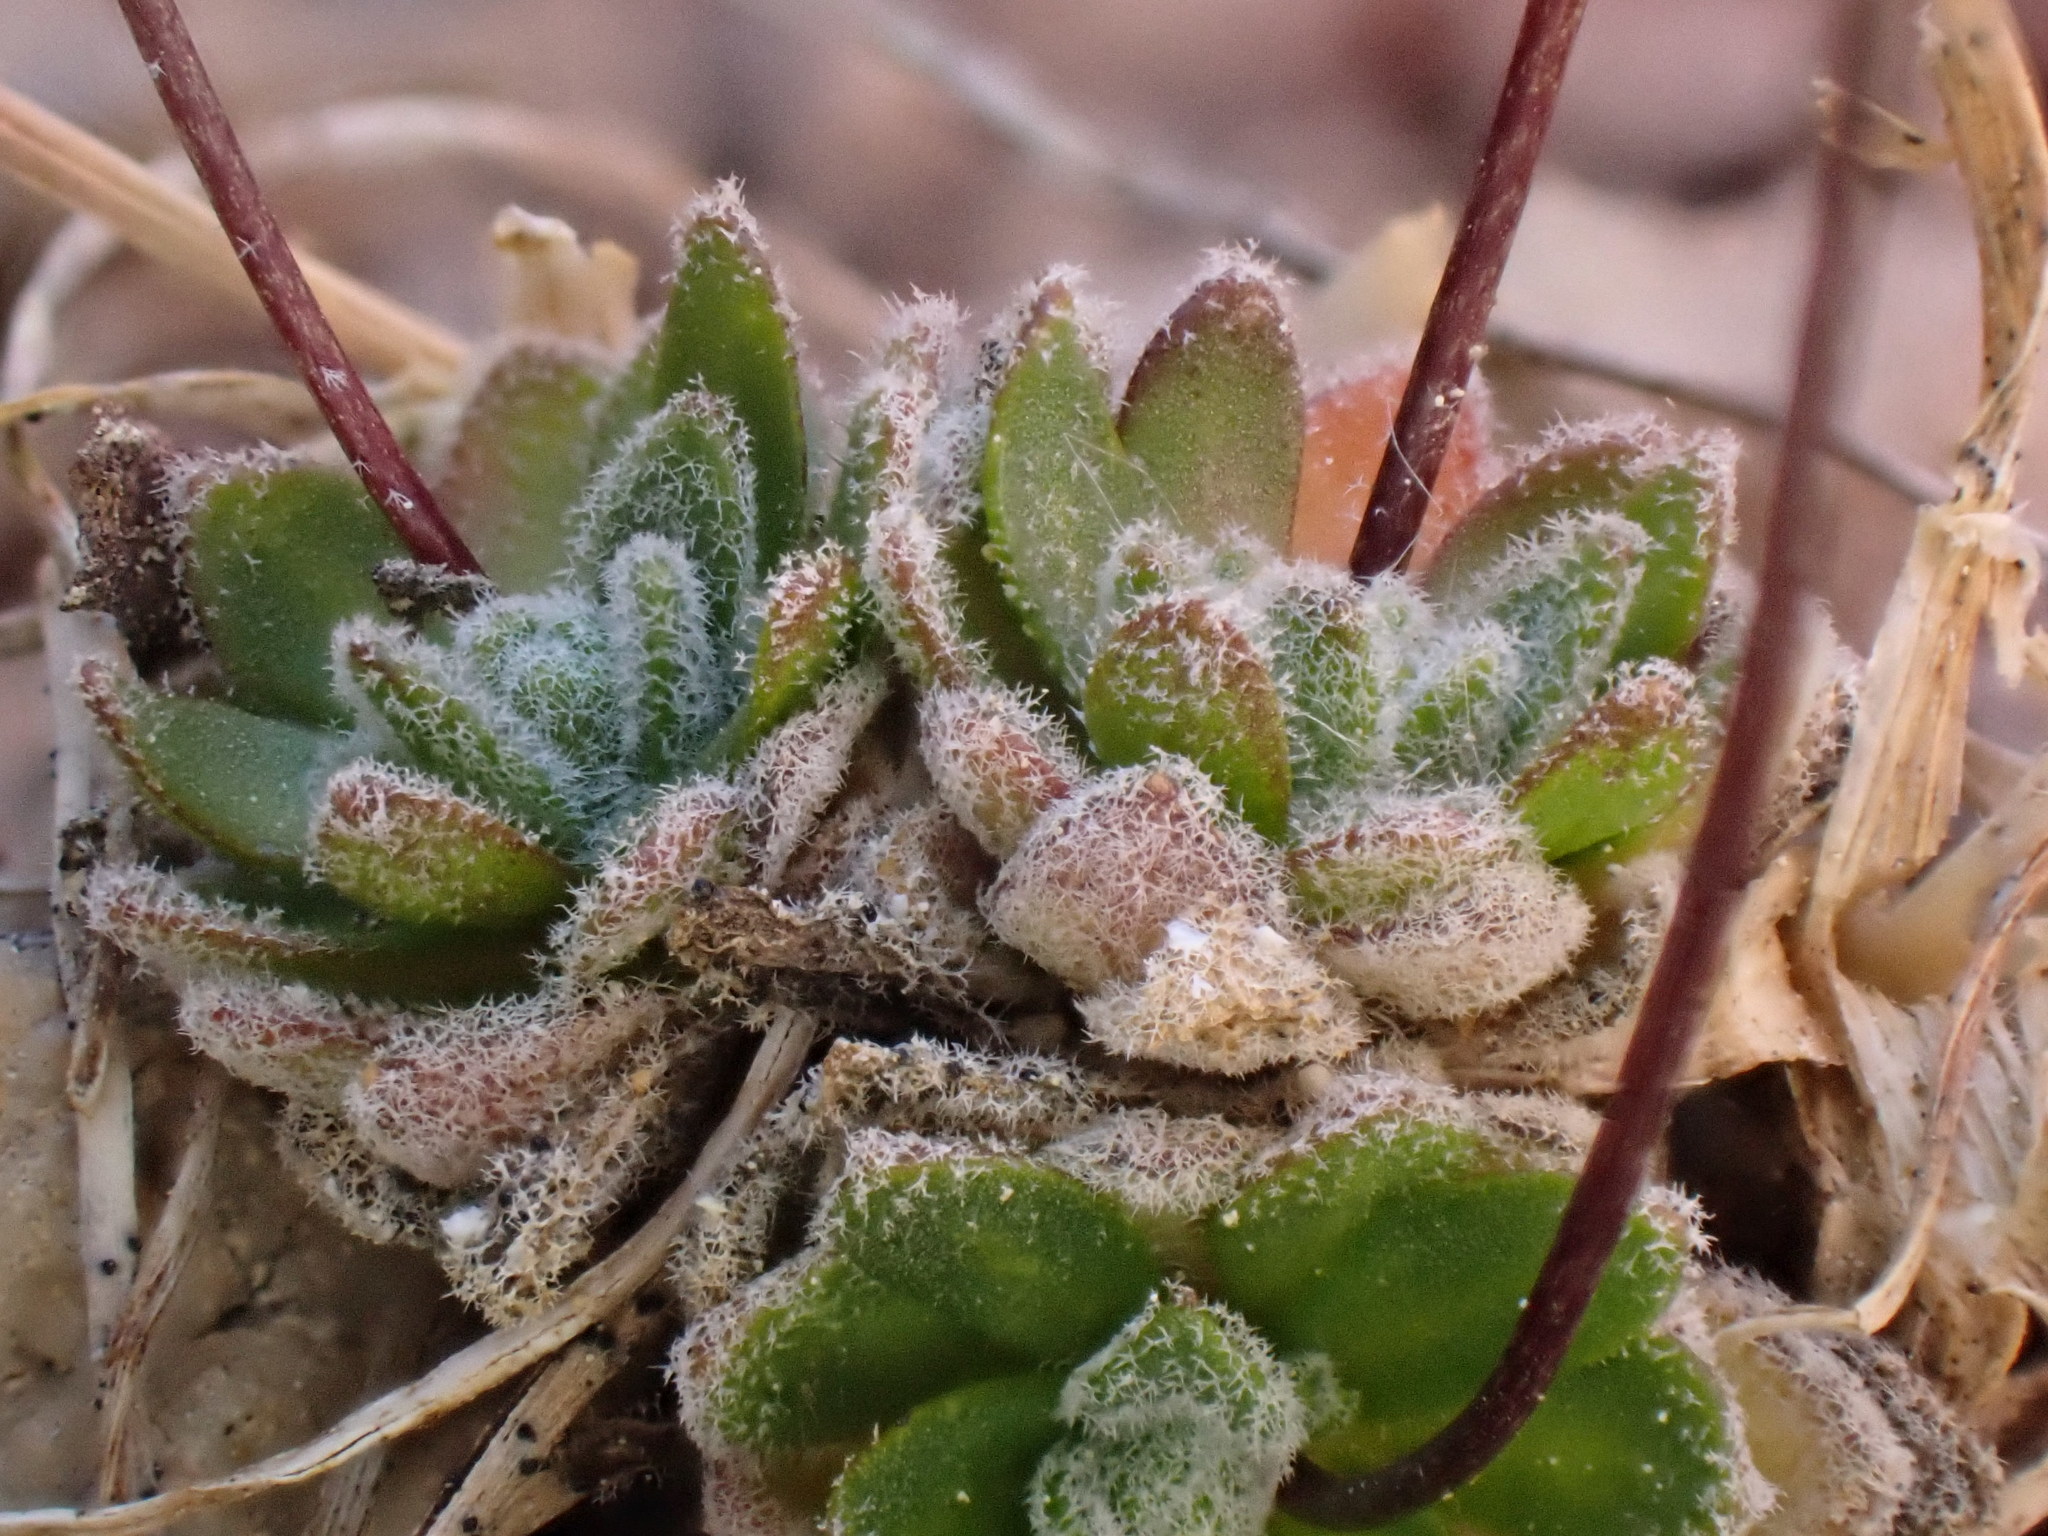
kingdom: Plantae
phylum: Tracheophyta
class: Magnoliopsida
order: Brassicales
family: Brassicaceae
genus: Draba
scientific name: Draba lonchocarpa
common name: Lance-fruit draba
